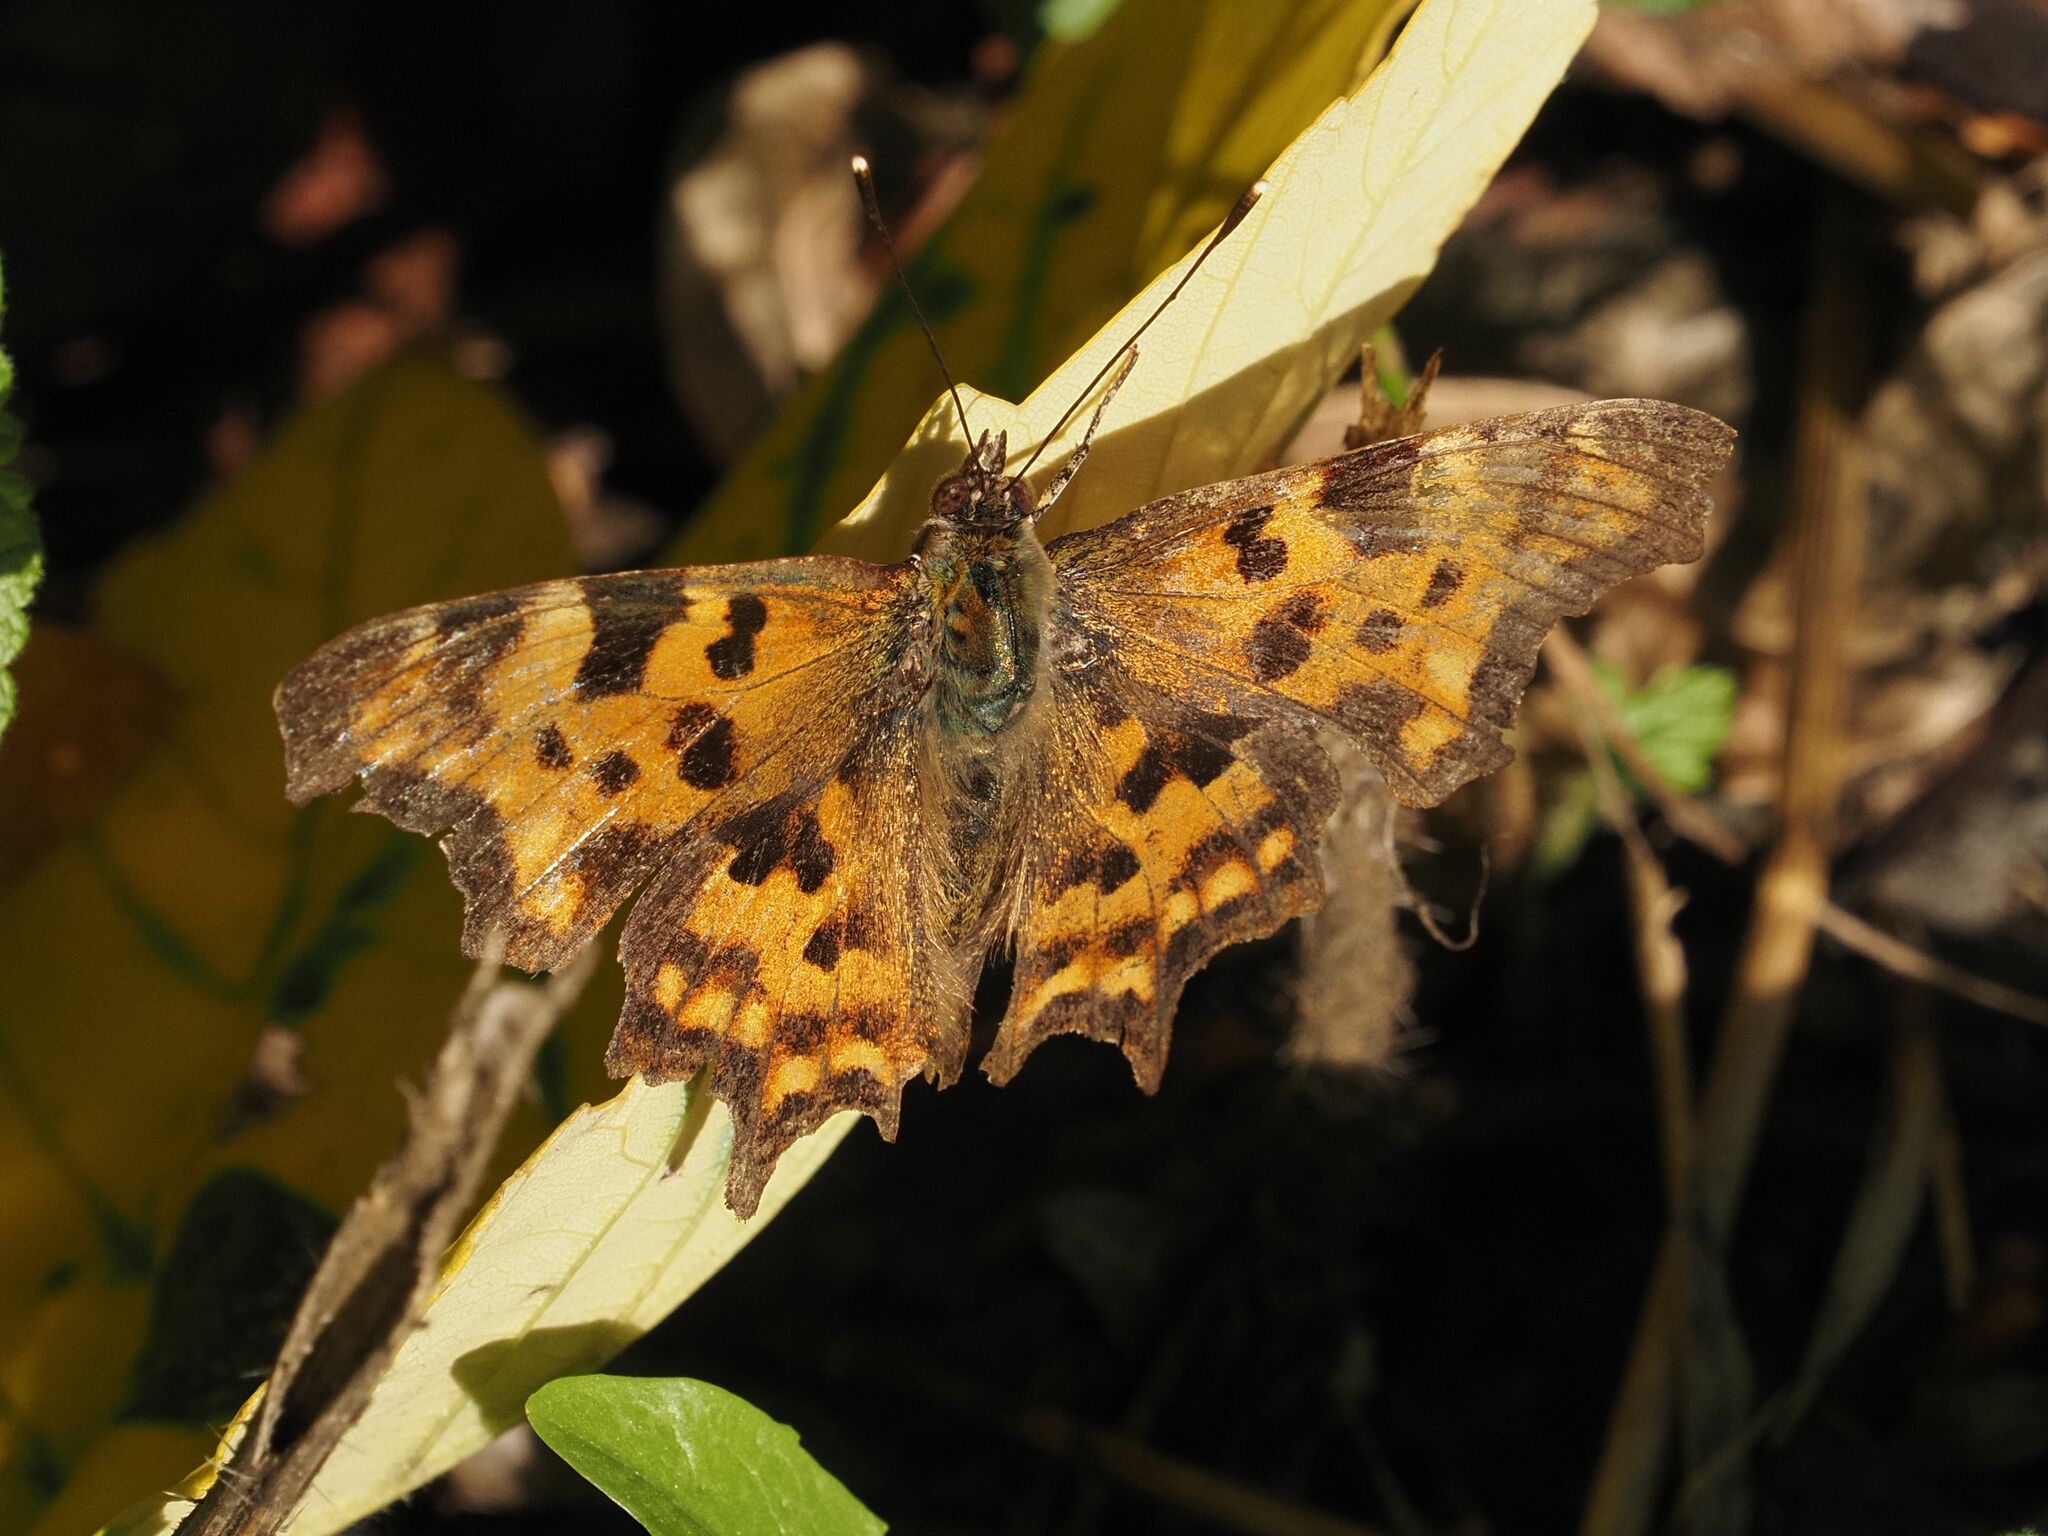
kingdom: Animalia
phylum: Arthropoda
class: Insecta
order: Lepidoptera
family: Nymphalidae
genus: Polygonia
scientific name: Polygonia c-album
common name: Comma
